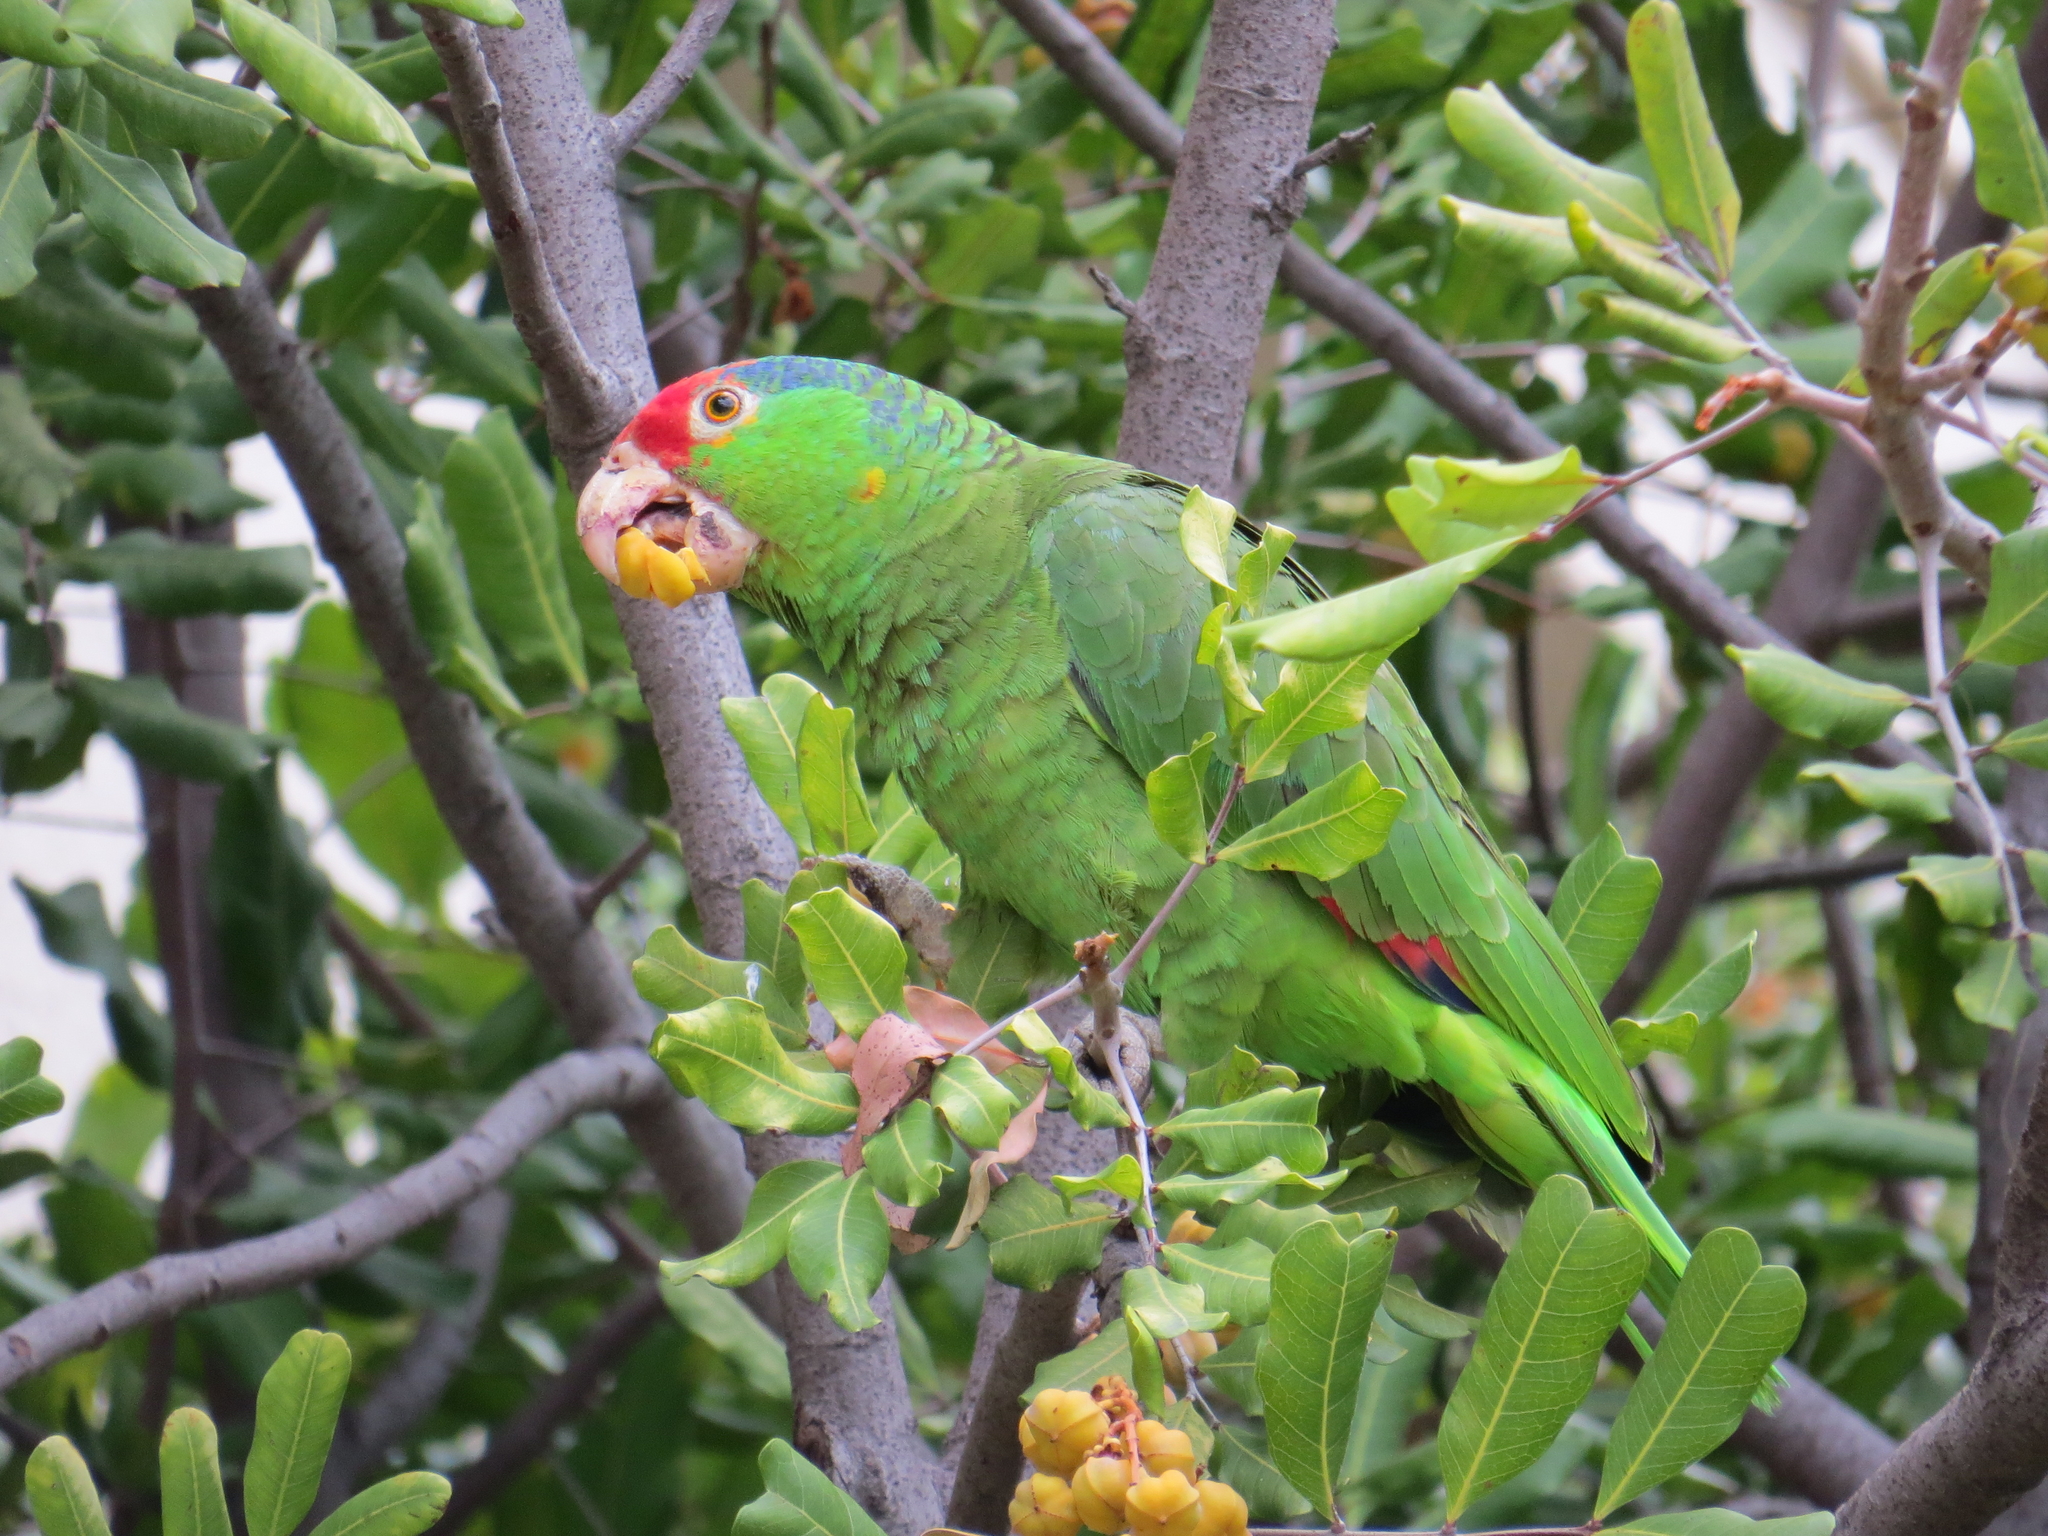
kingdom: Animalia
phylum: Chordata
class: Aves
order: Psittaciformes
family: Psittacidae
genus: Amazona
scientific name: Amazona viridigenalis
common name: Red-crowned amazon
